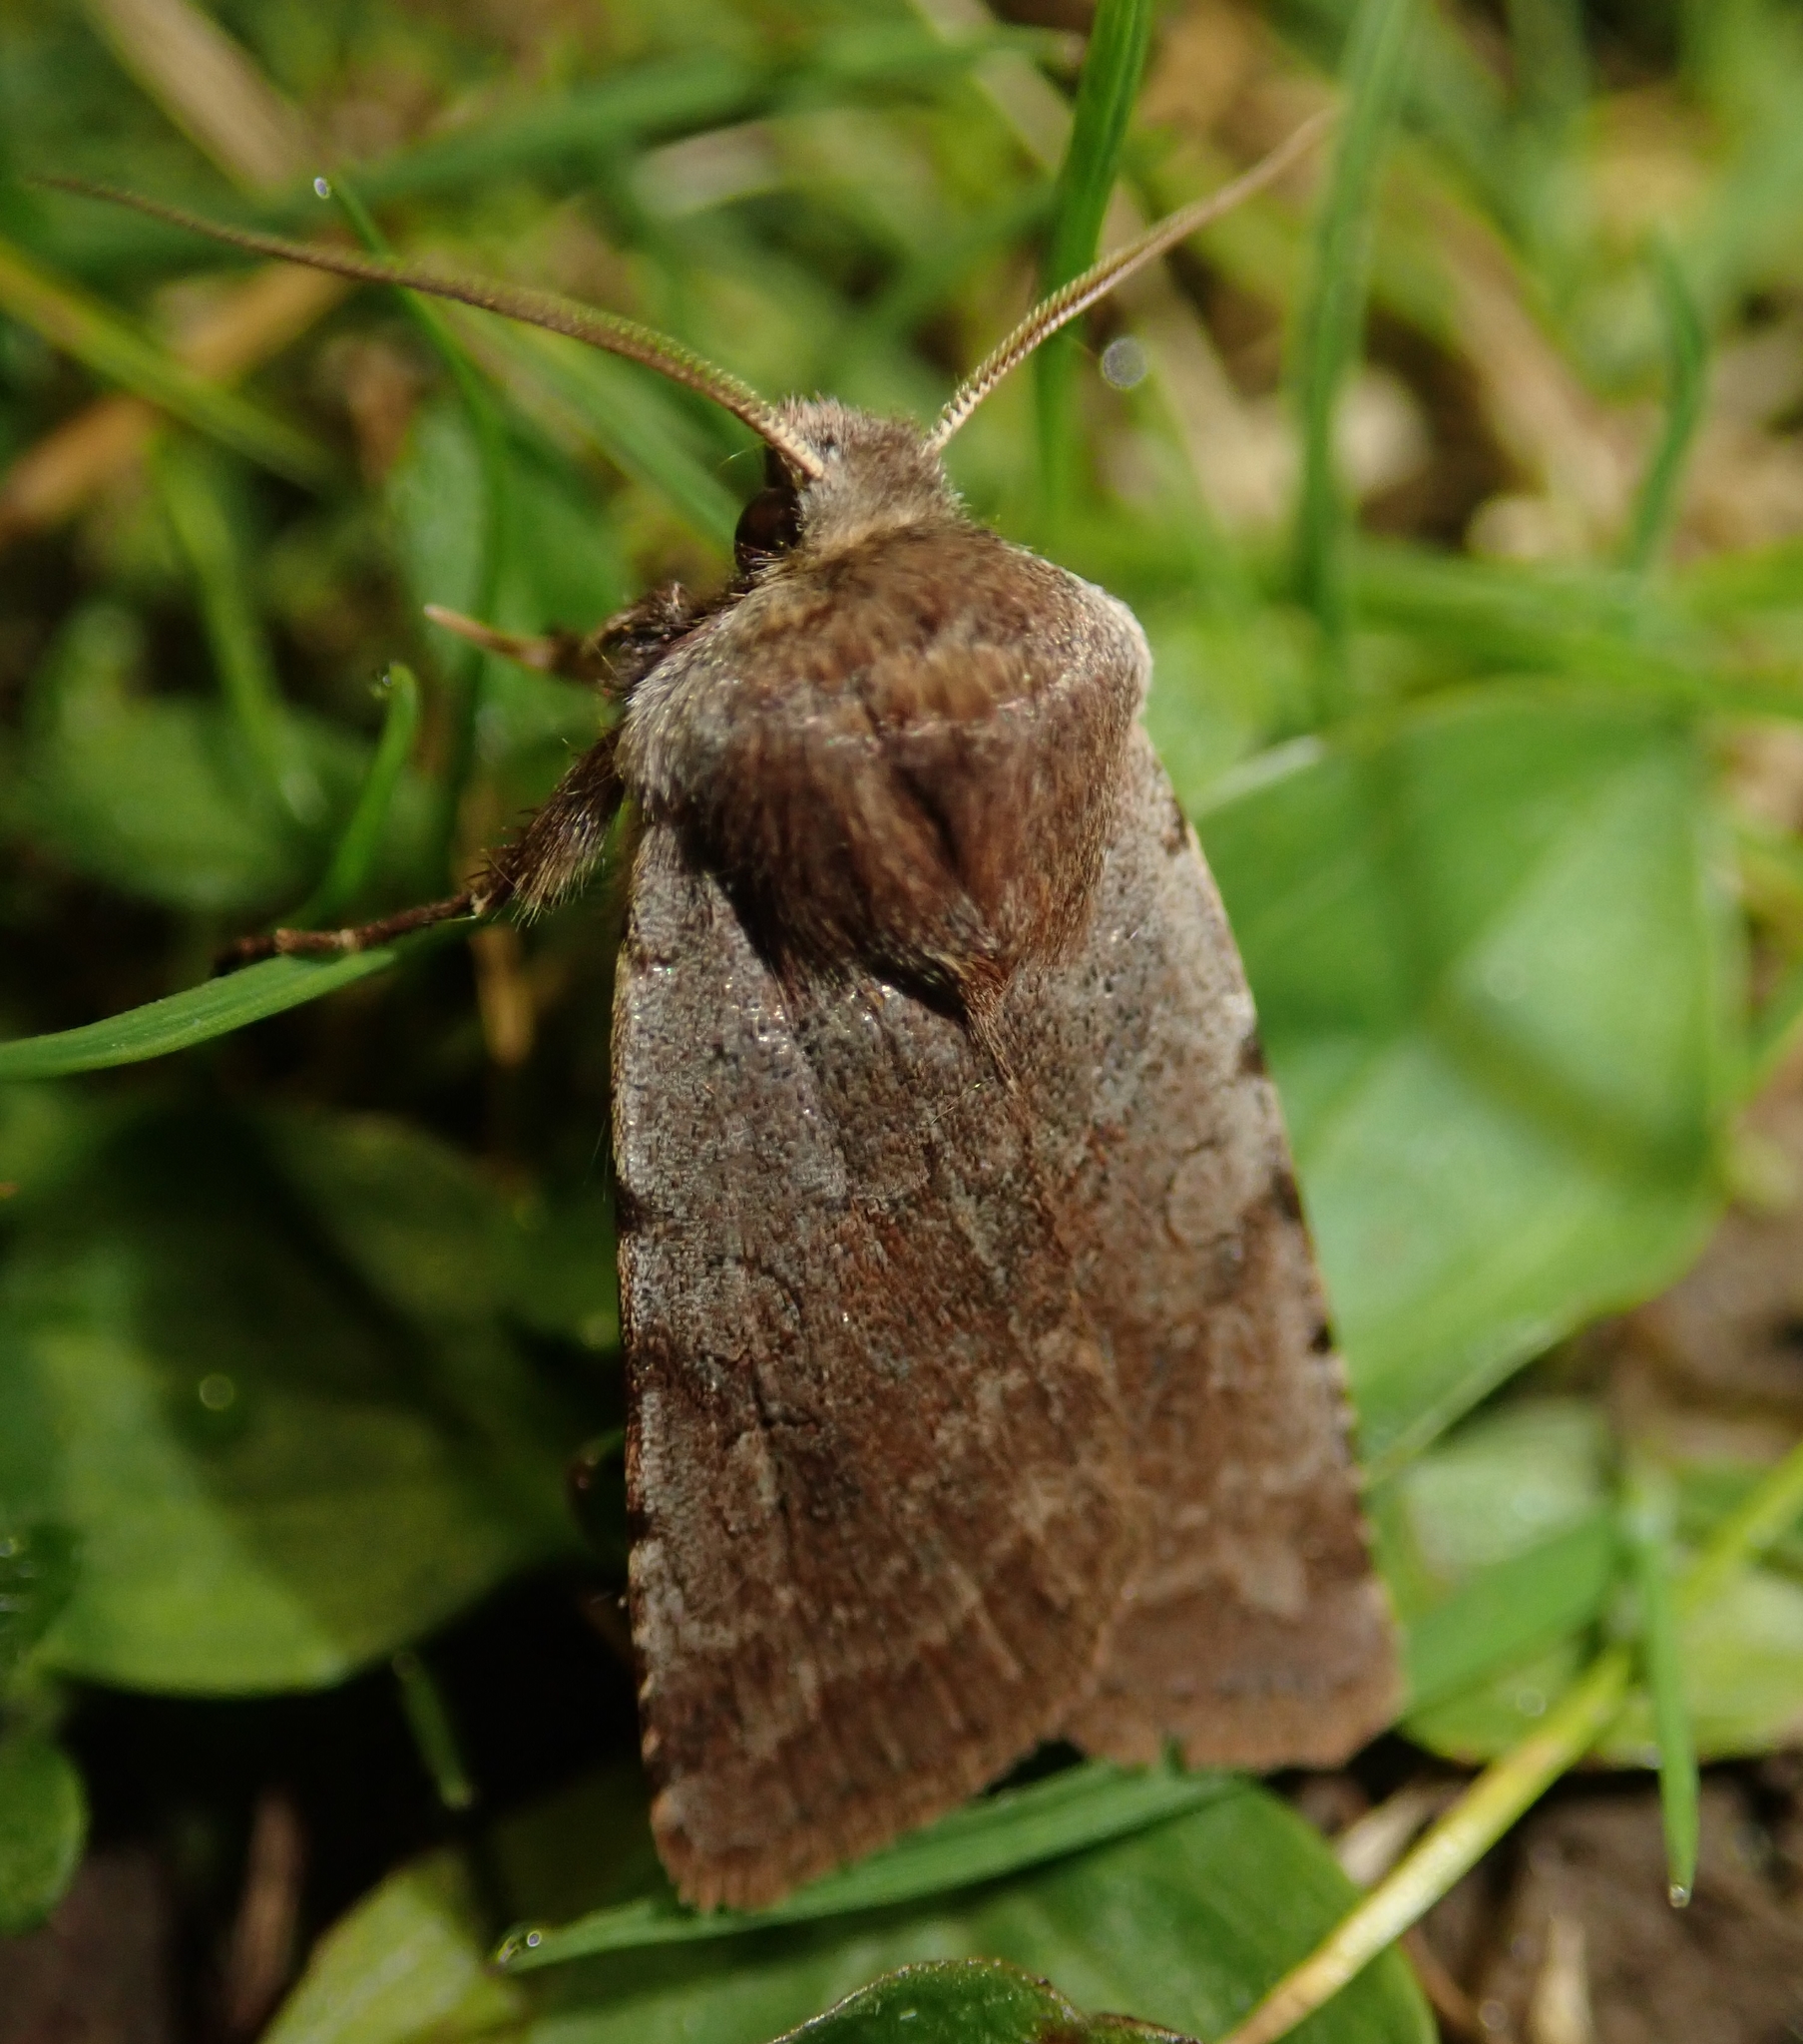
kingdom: Animalia
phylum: Arthropoda
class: Insecta
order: Lepidoptera
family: Noctuidae
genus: Cerastis
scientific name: Cerastis rubricosa
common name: Red chestnut
